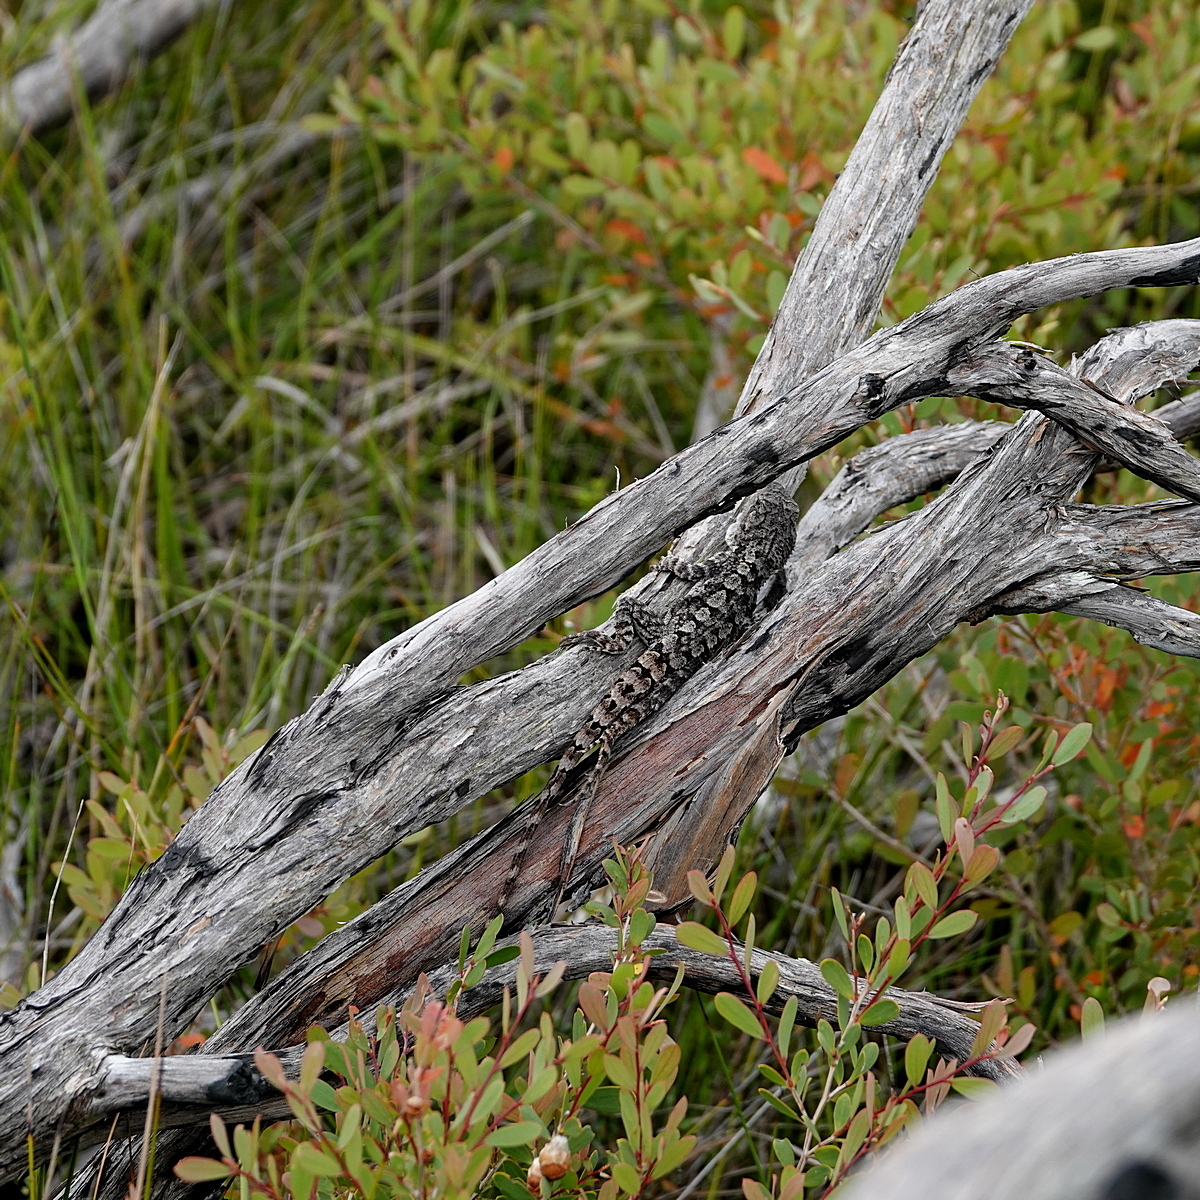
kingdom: Animalia
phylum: Chordata
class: Squamata
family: Agamidae
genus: Amphibolurus
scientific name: Amphibolurus muricatus
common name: Jacky lizard
